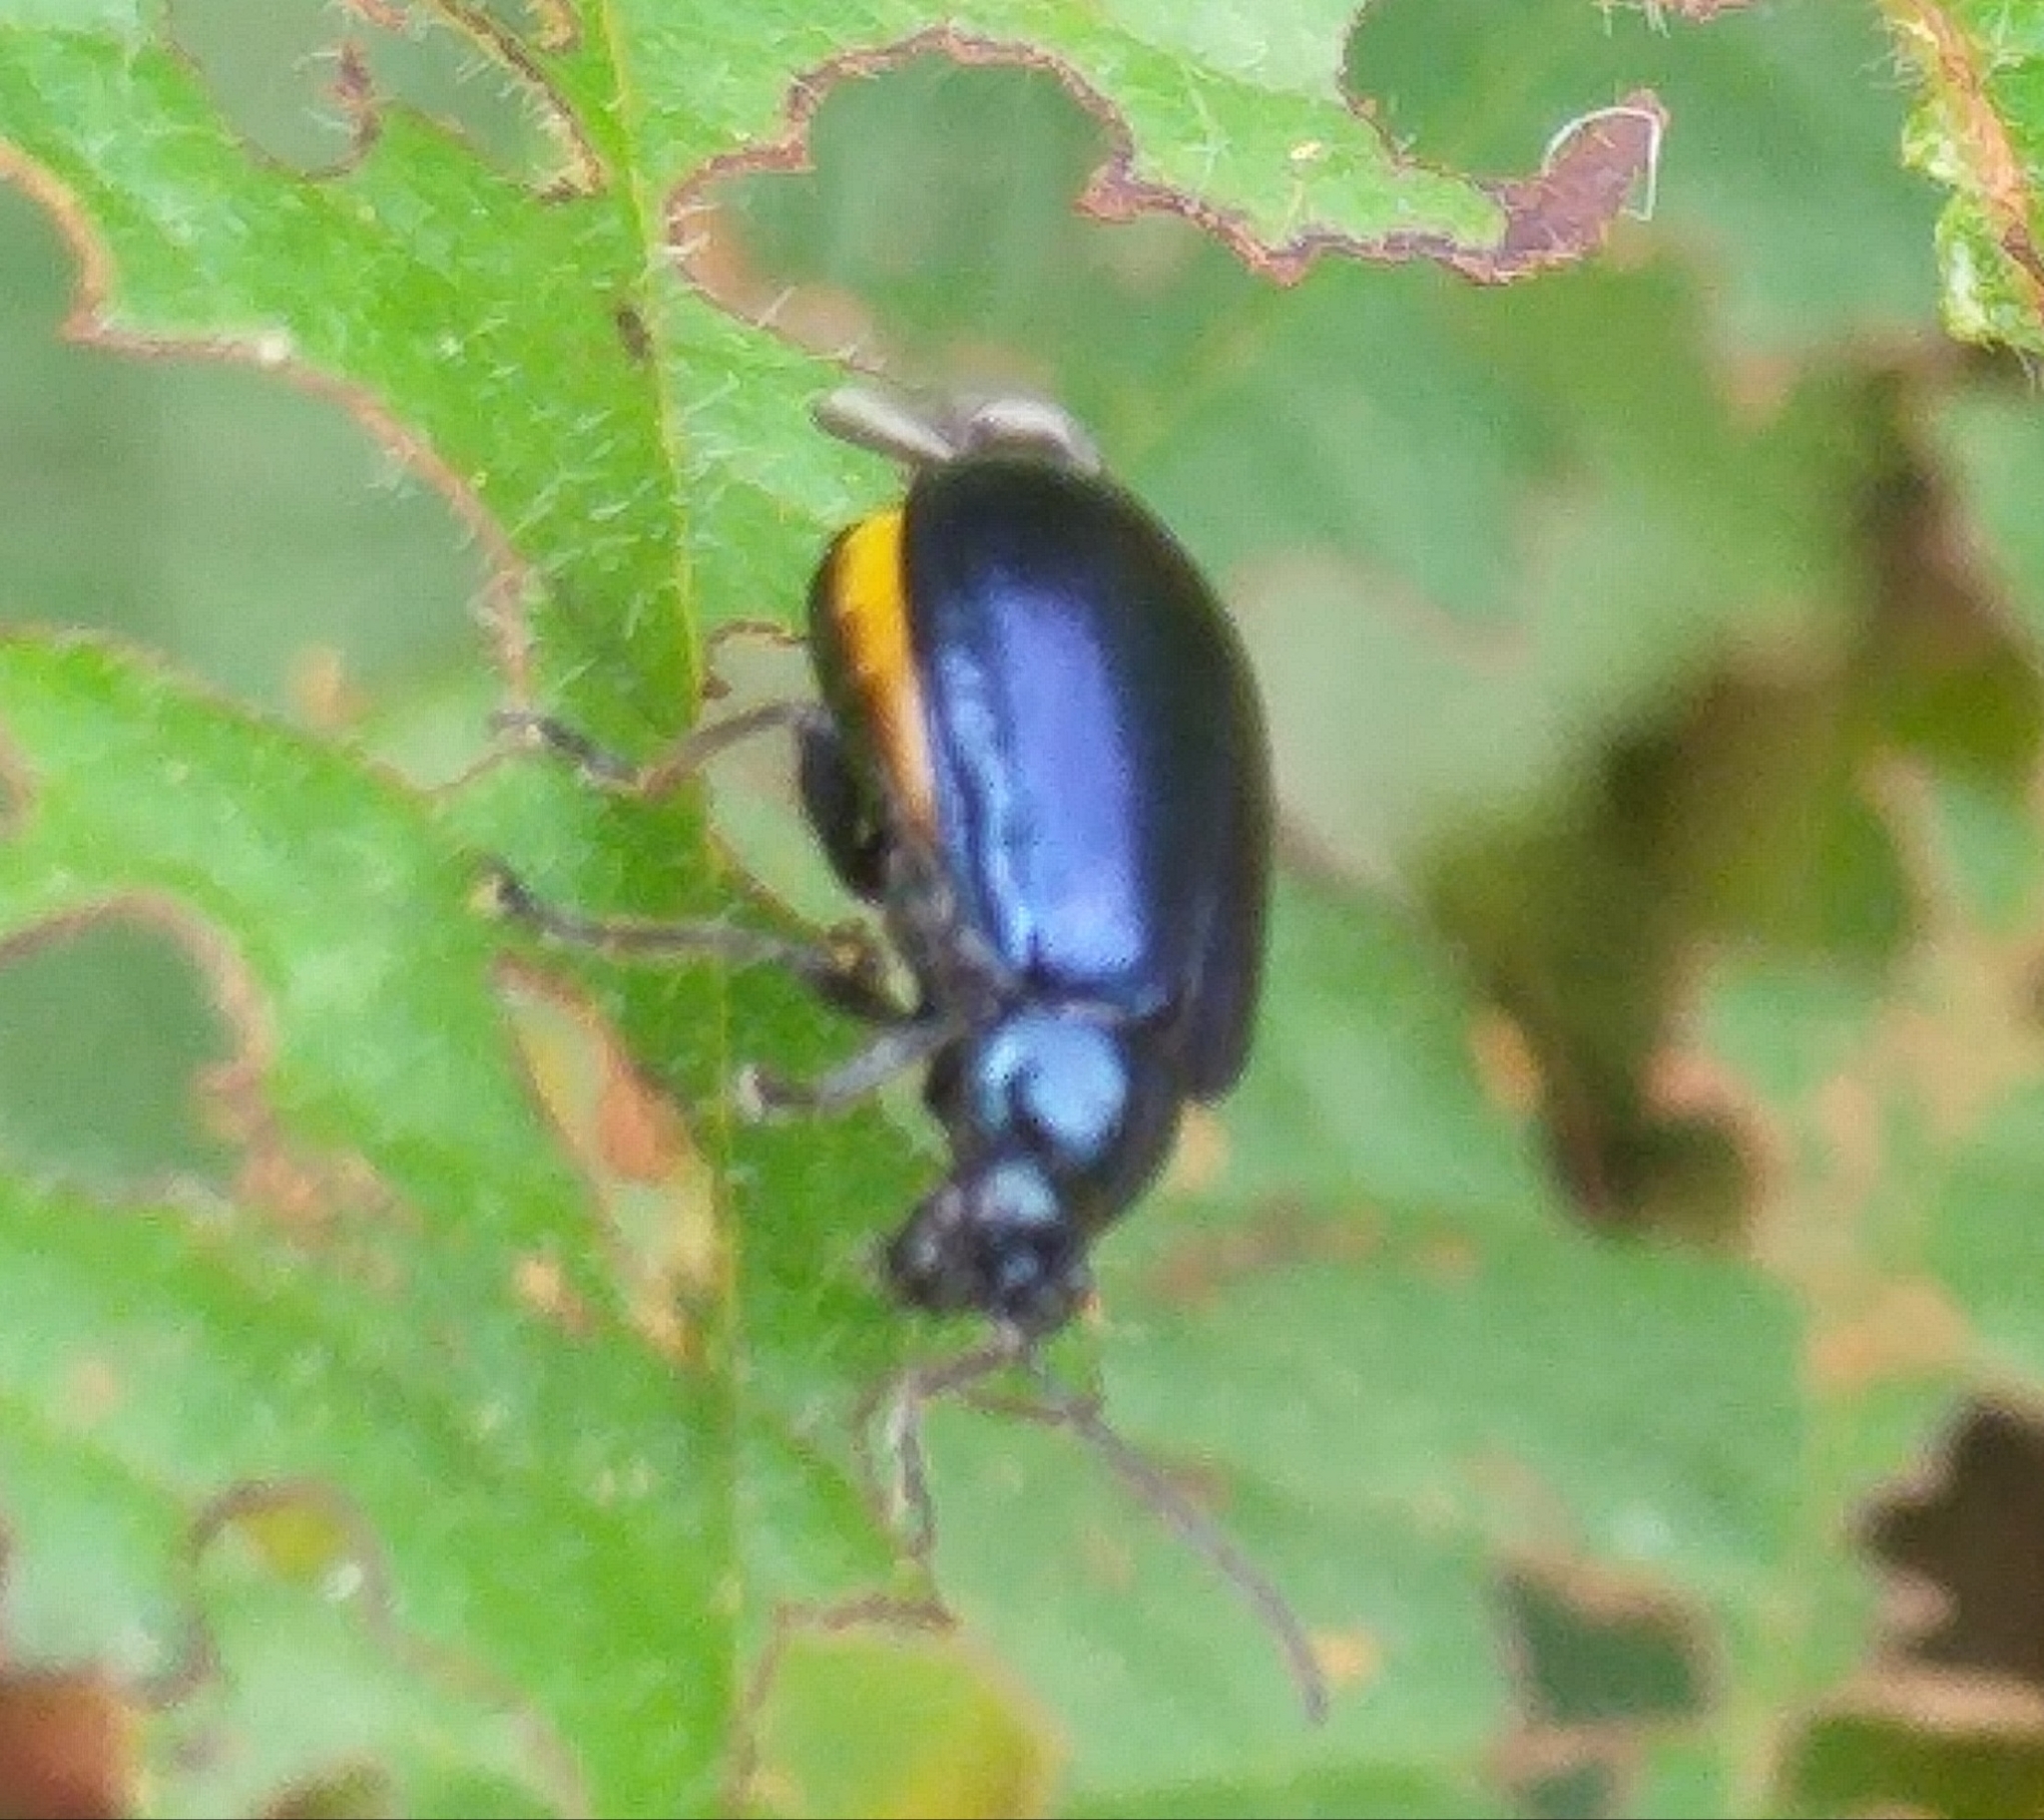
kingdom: Animalia
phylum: Arthropoda
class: Insecta
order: Coleoptera
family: Chrysomelidae
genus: Agelastica
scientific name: Agelastica alni
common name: Alder leaf beetle
